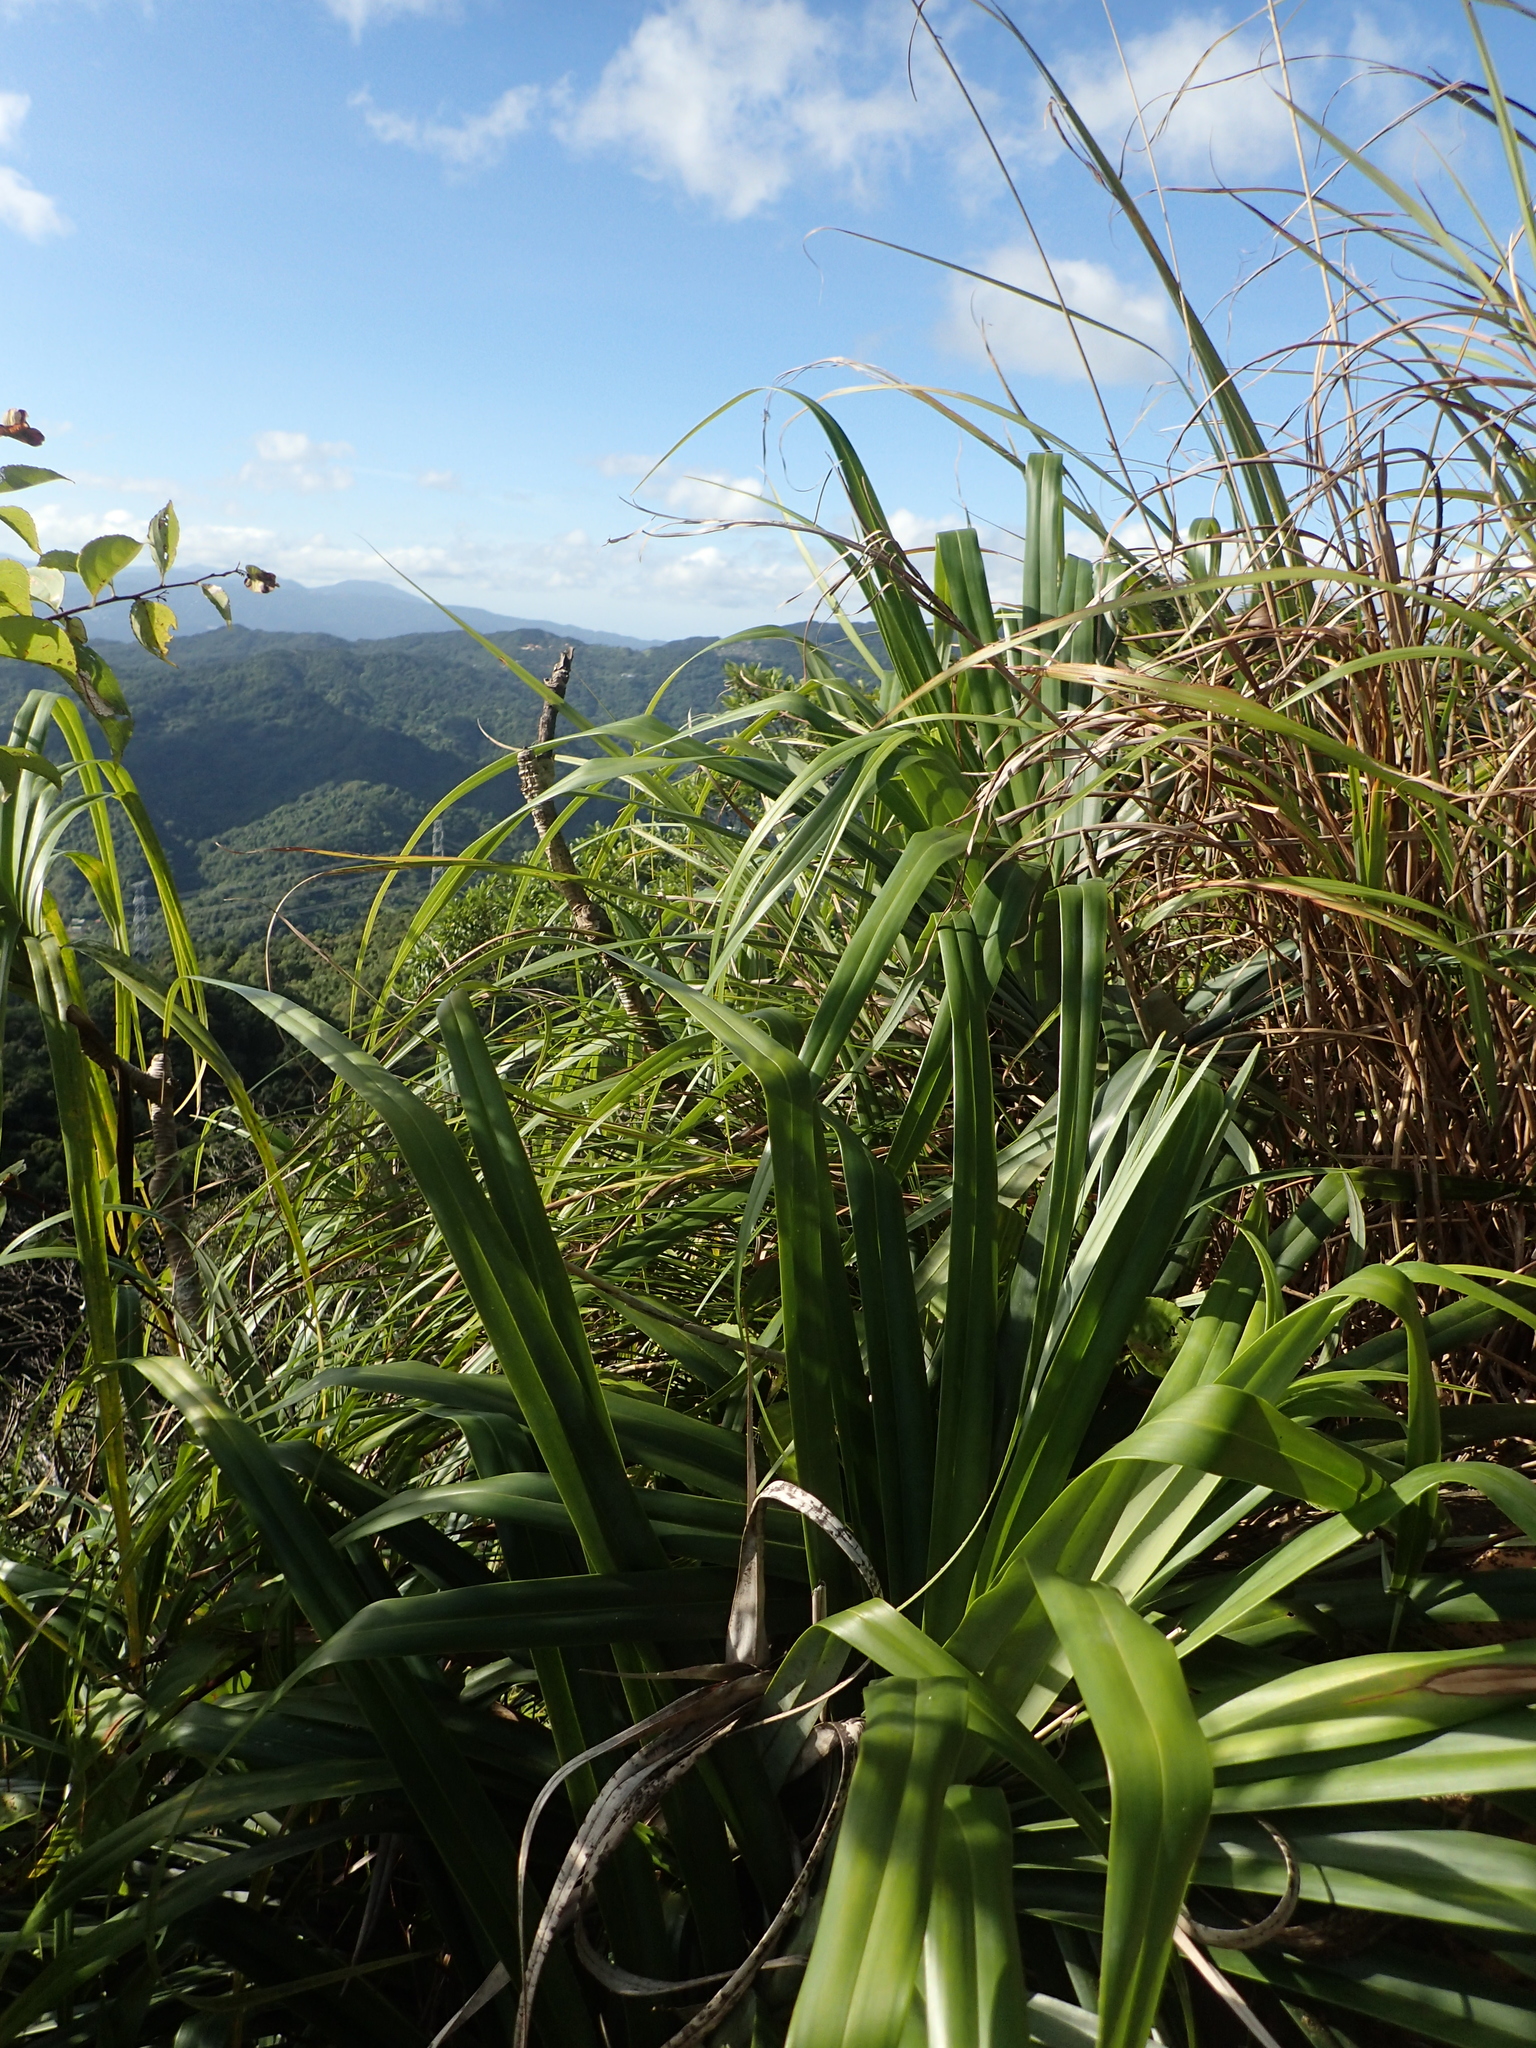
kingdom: Plantae
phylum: Tracheophyta
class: Liliopsida
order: Pandanales
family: Pandanaceae
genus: Freycinetia
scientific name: Freycinetia formosana
